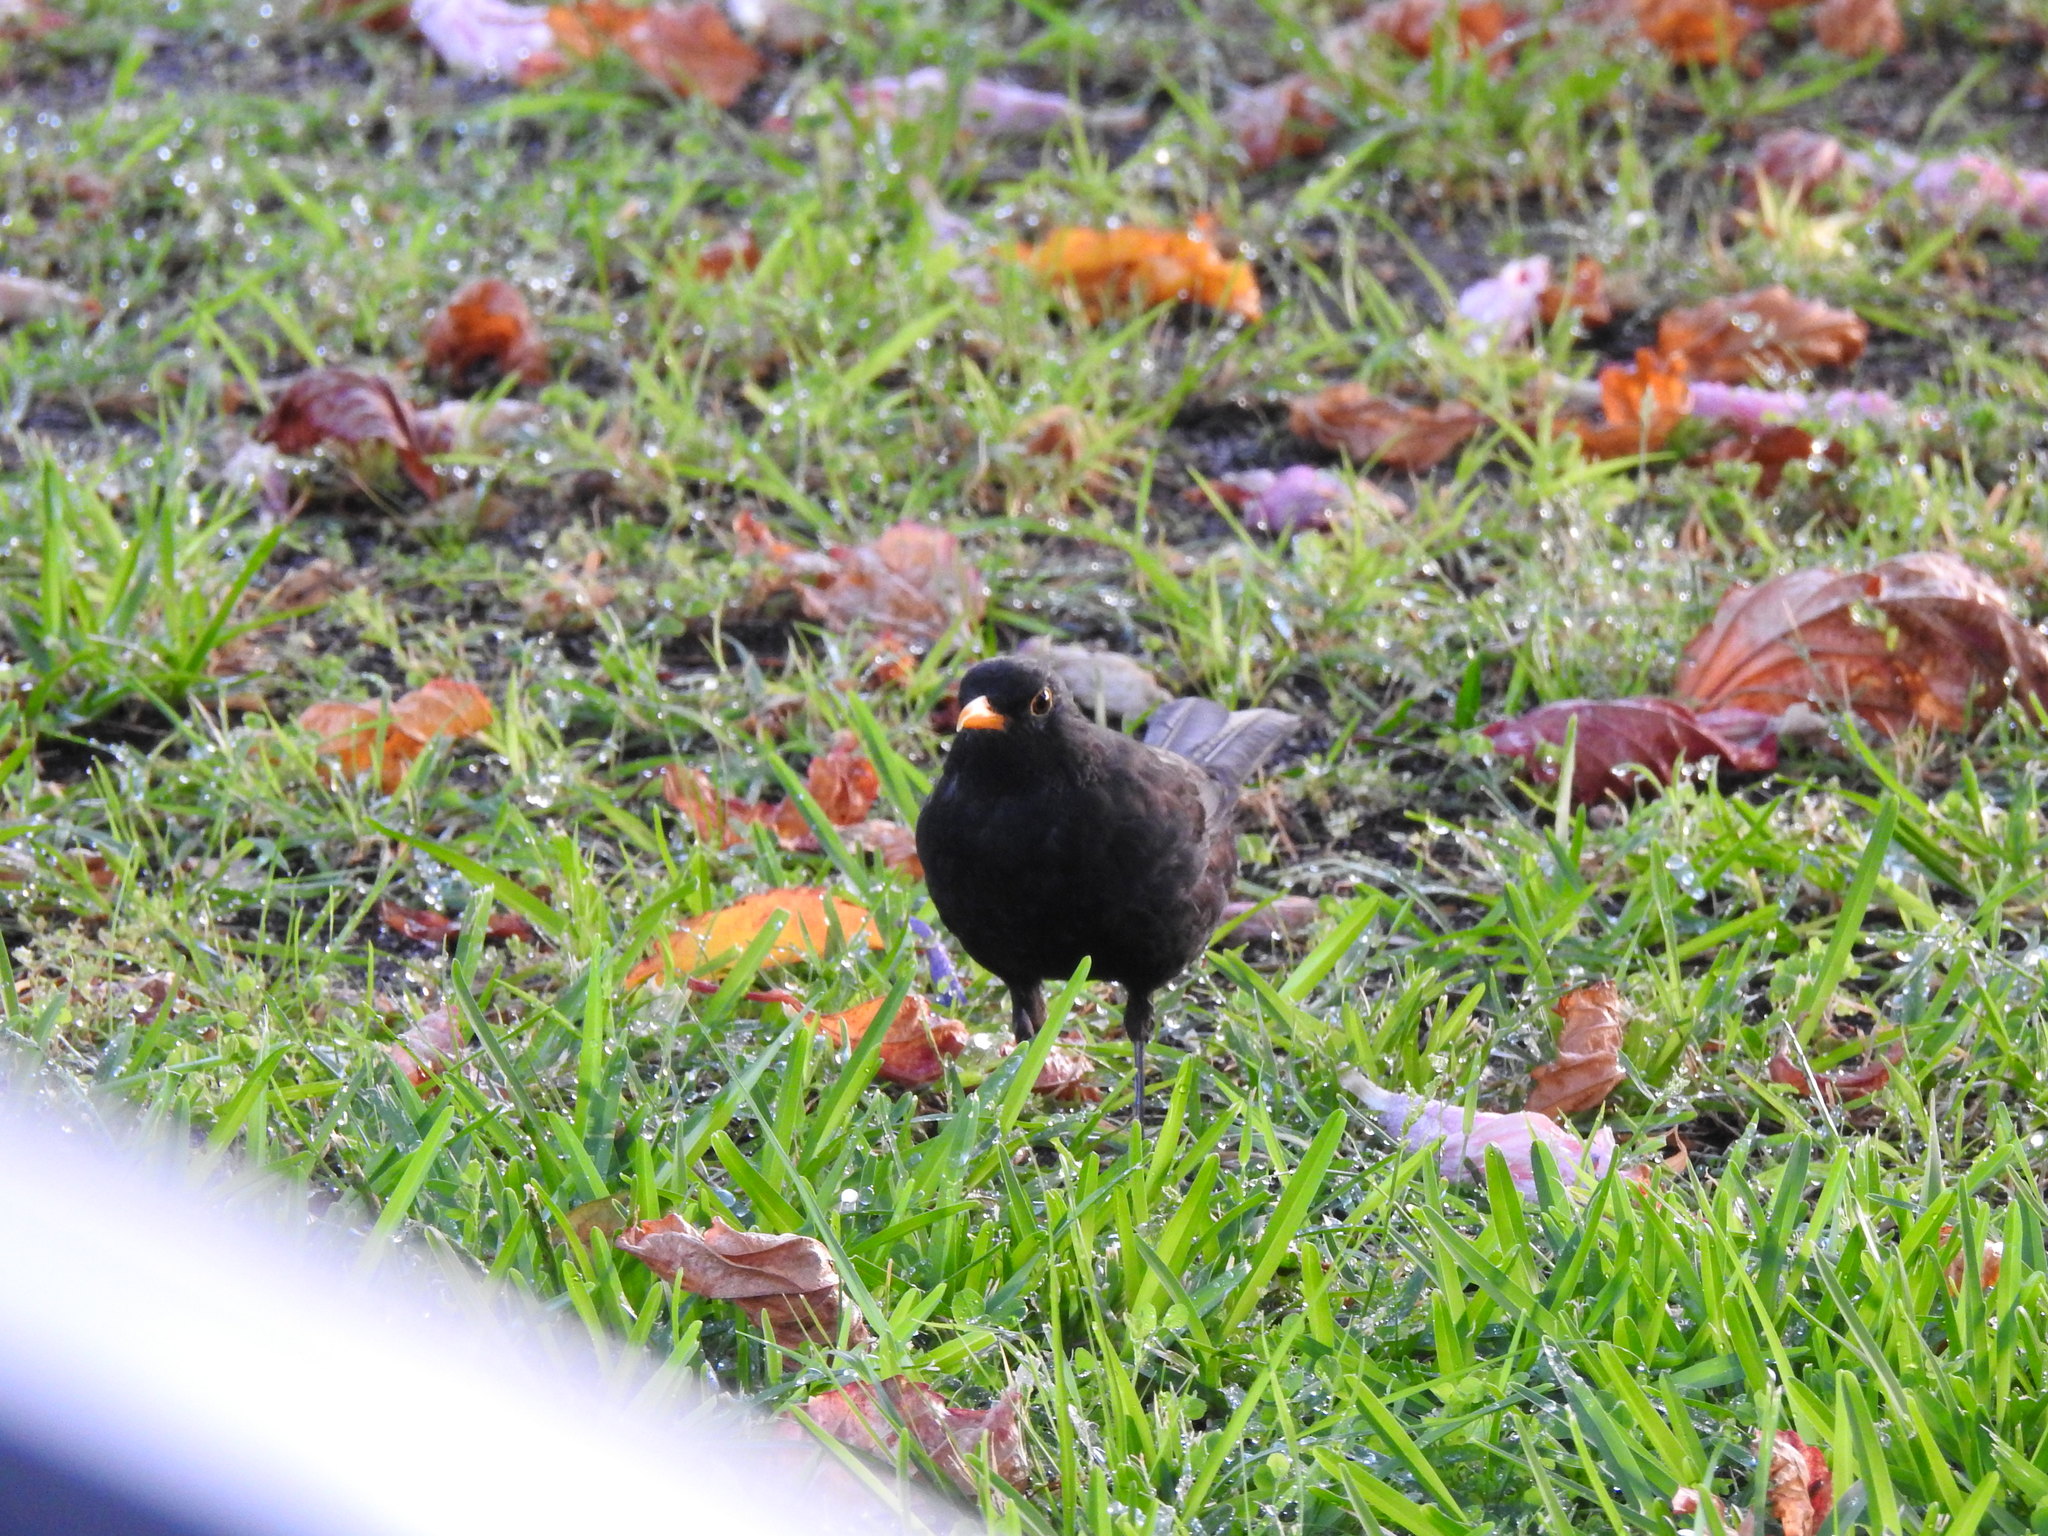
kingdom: Animalia
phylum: Chordata
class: Aves
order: Passeriformes
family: Turdidae
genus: Turdus
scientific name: Turdus merula
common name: Common blackbird
